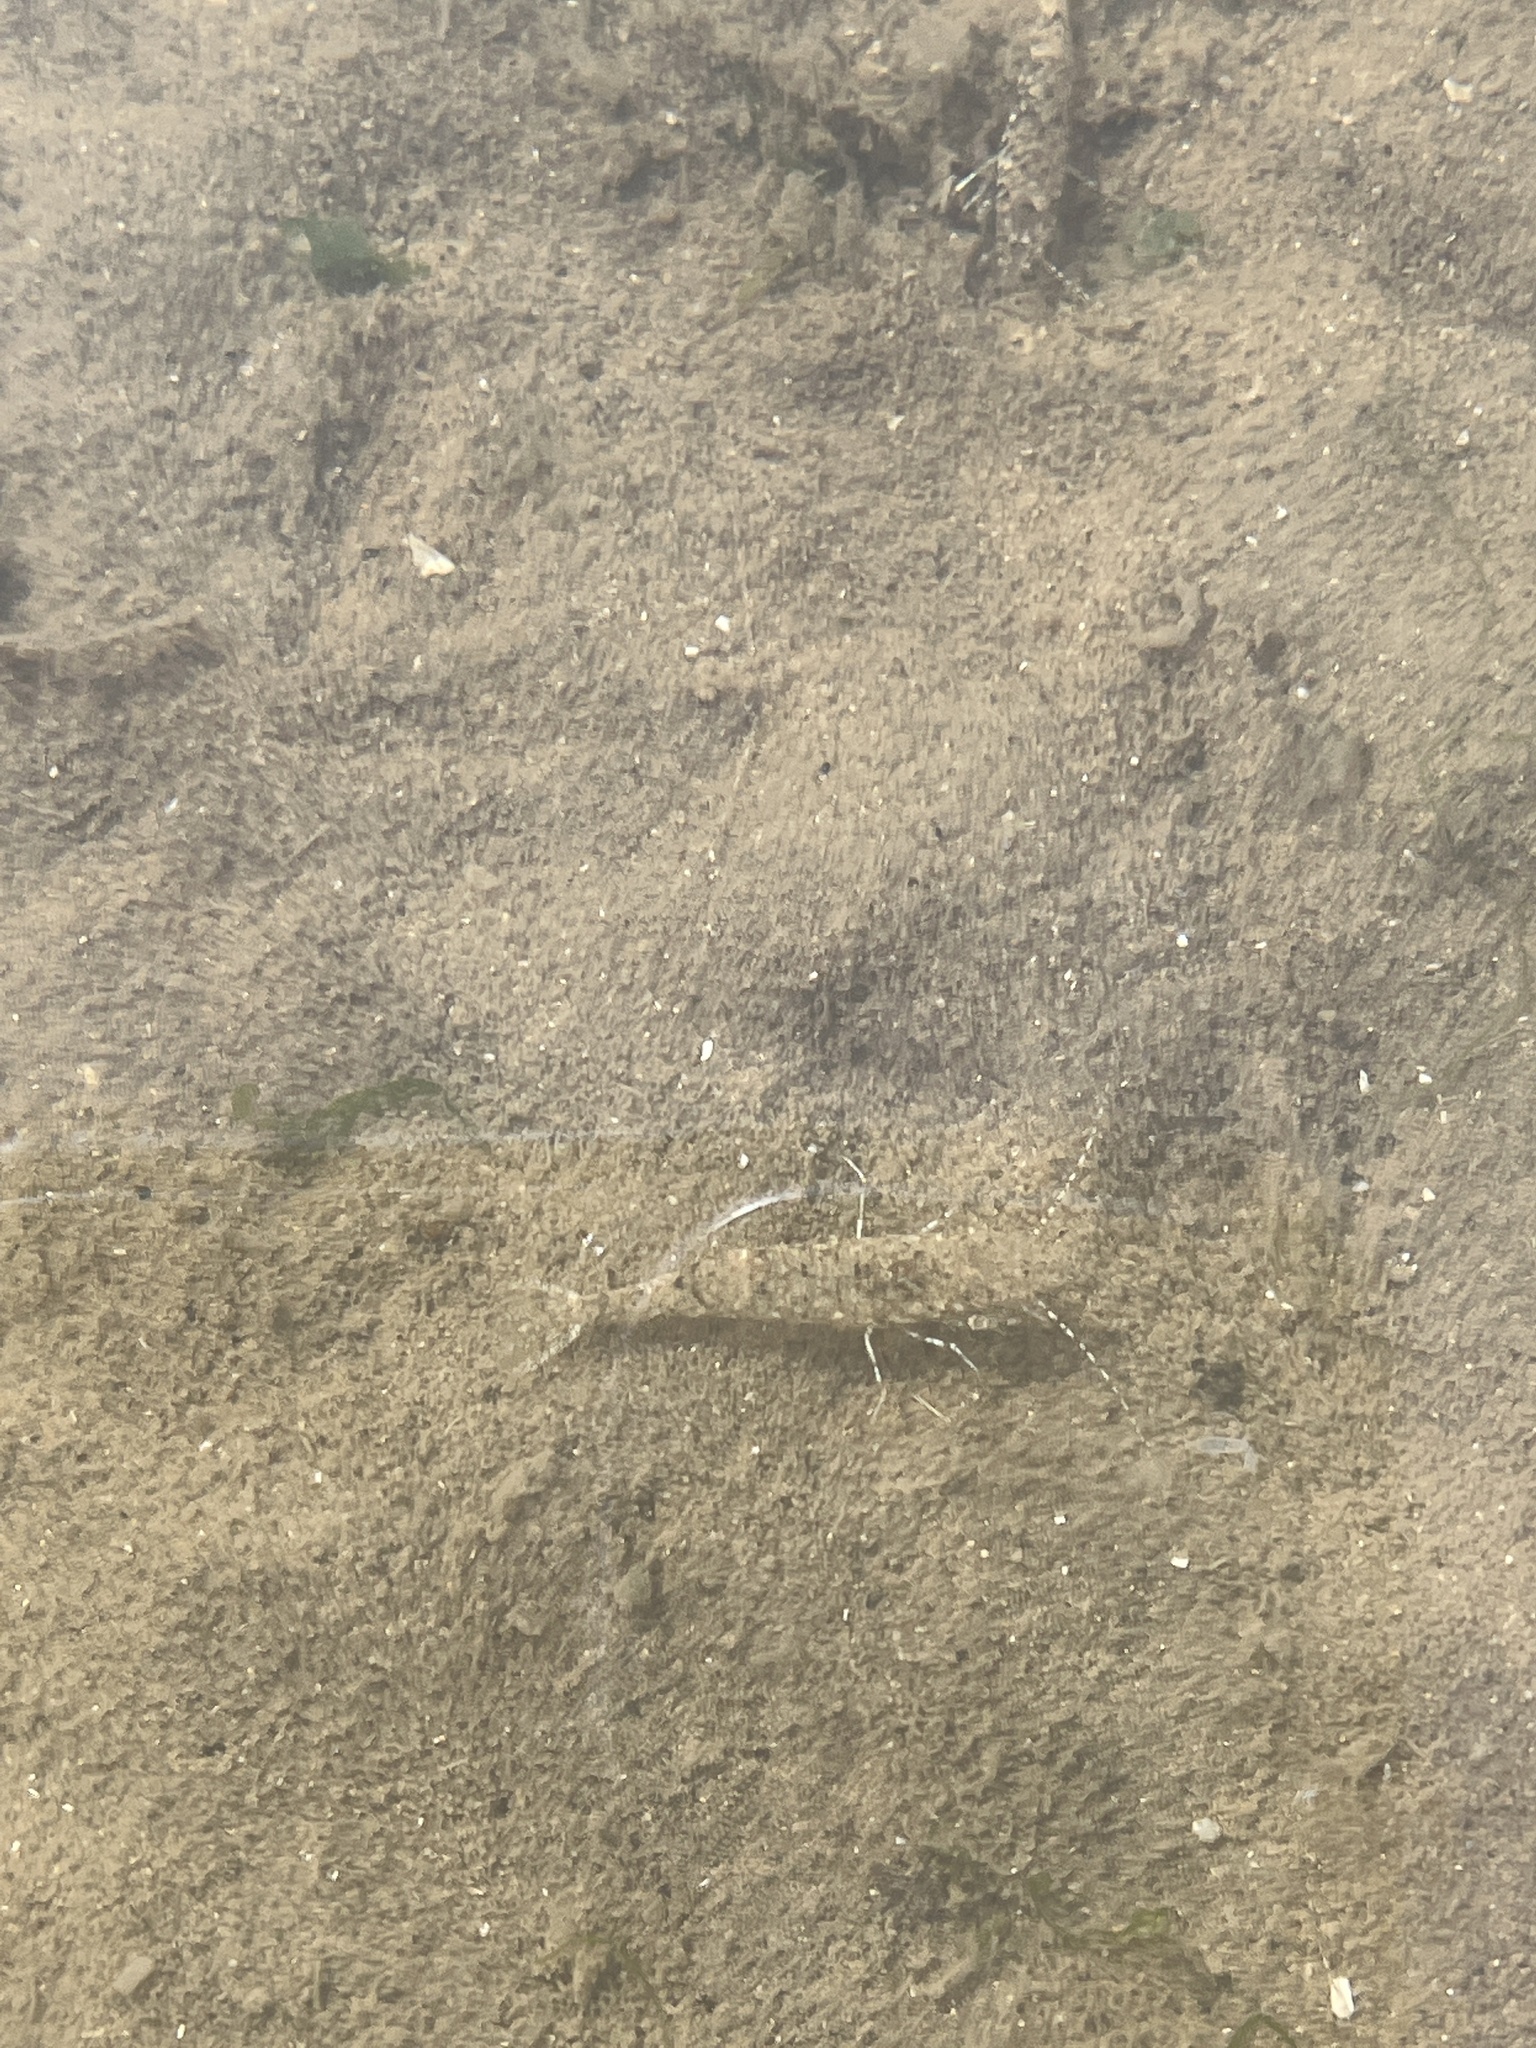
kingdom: Animalia
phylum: Arthropoda
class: Malacostraca
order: Decapoda
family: Crangonidae
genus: Crangon
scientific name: Crangon crangon
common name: Brown shrimp
